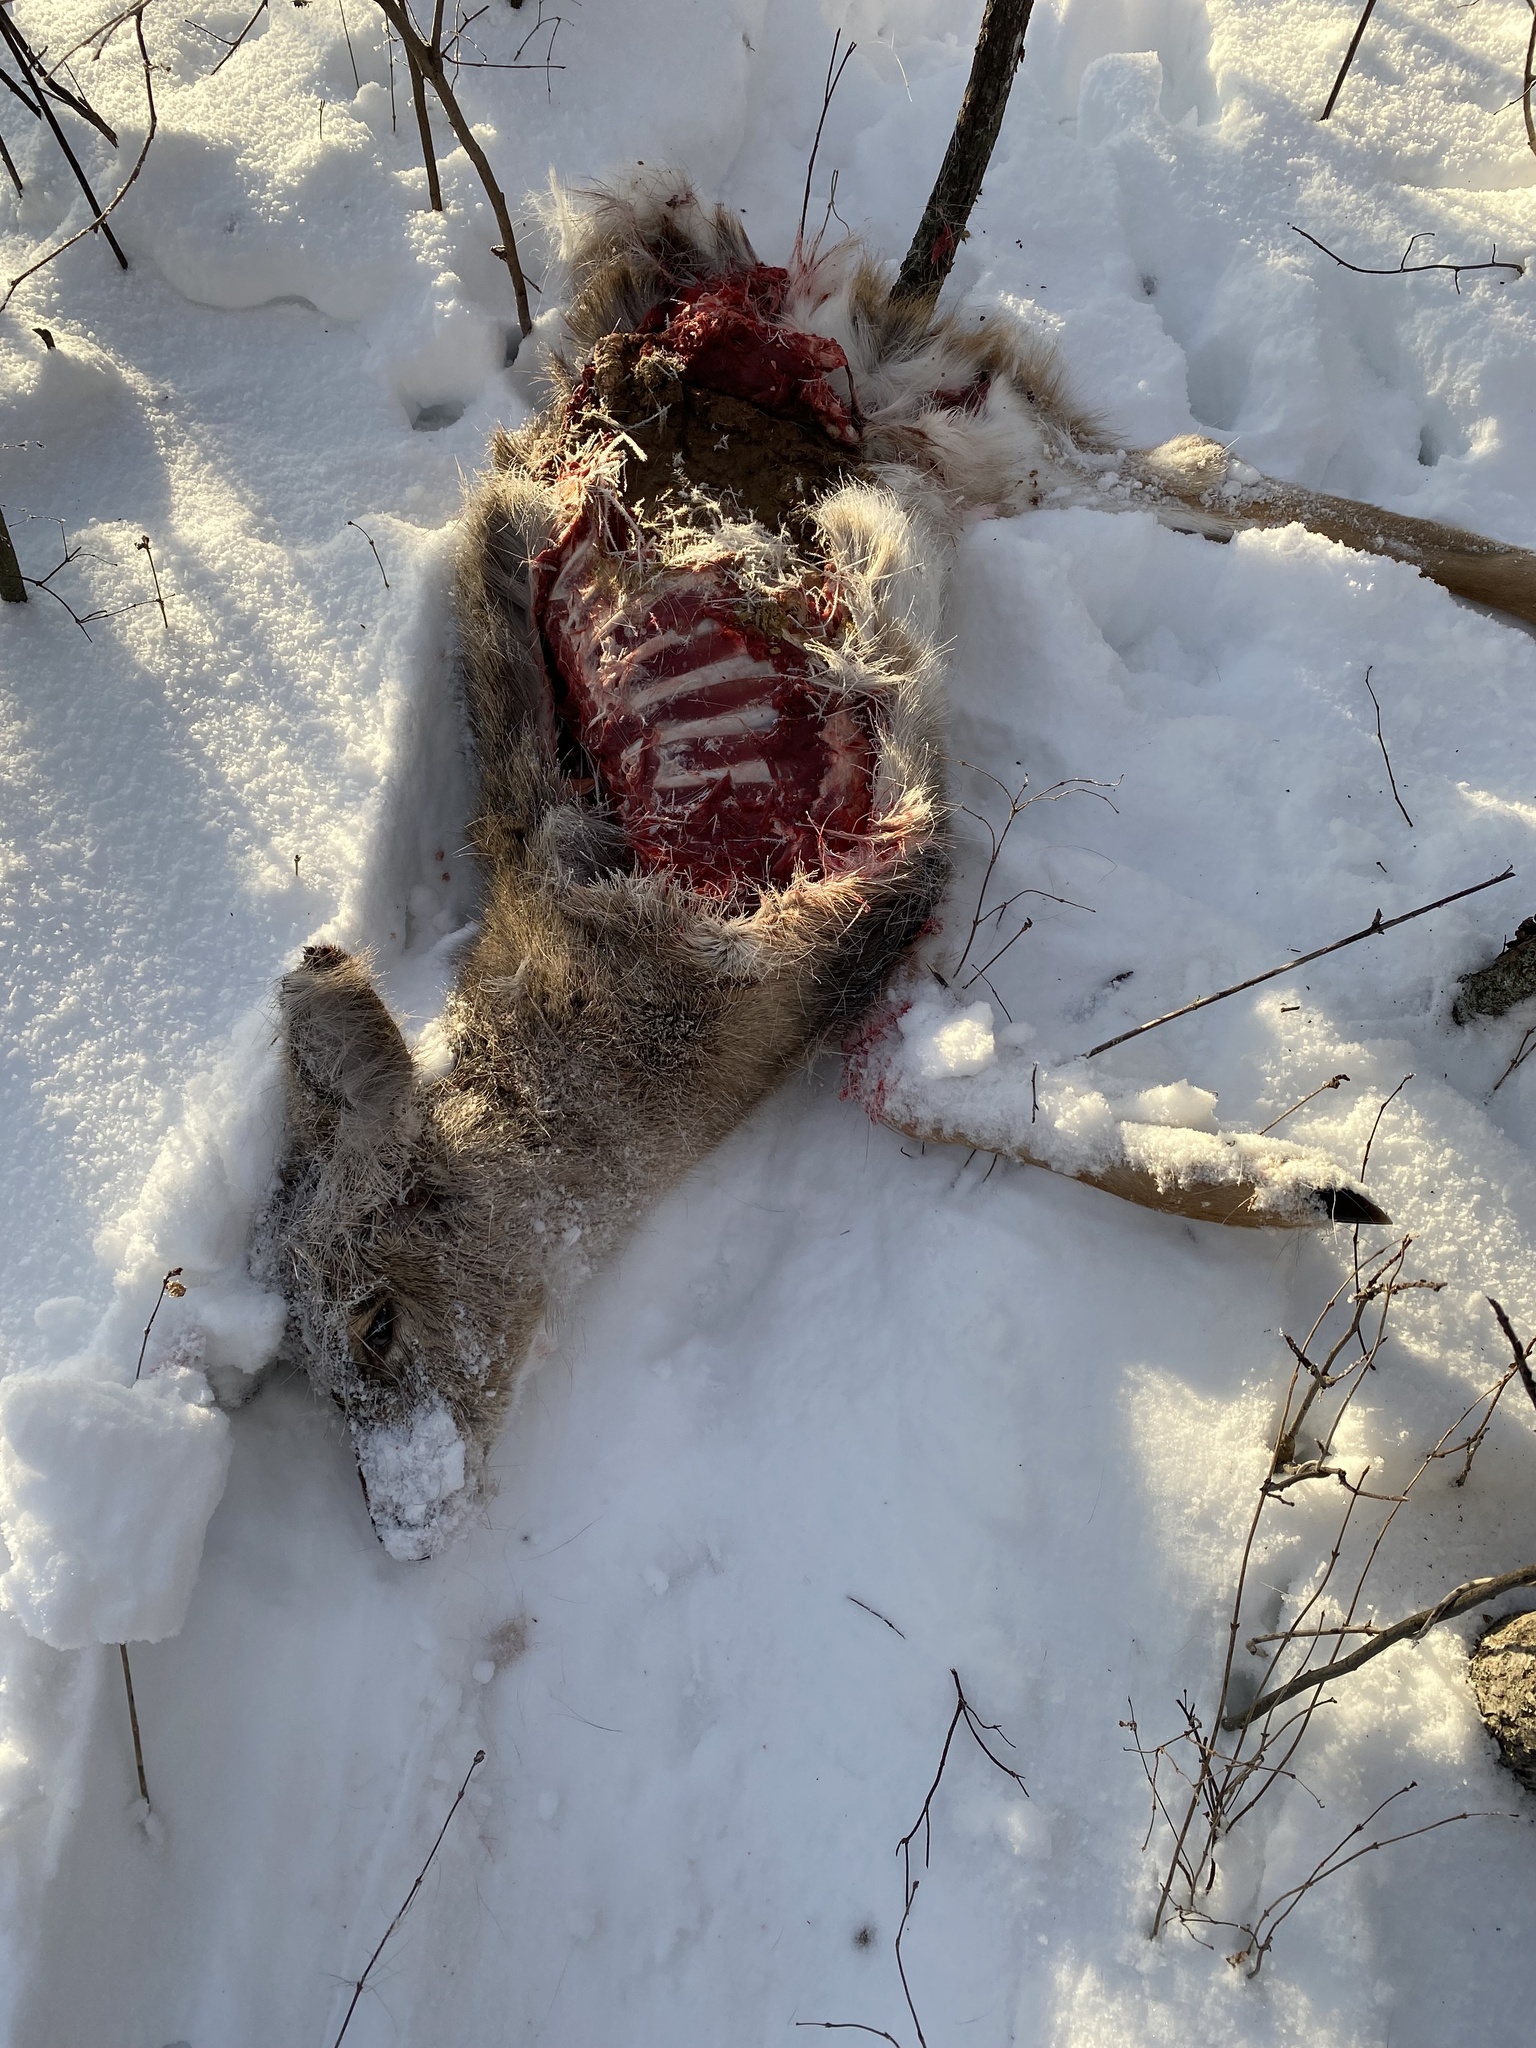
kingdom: Animalia
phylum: Chordata
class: Mammalia
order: Artiodactyla
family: Cervidae
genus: Odocoileus
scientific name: Odocoileus virginianus
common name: White-tailed deer
